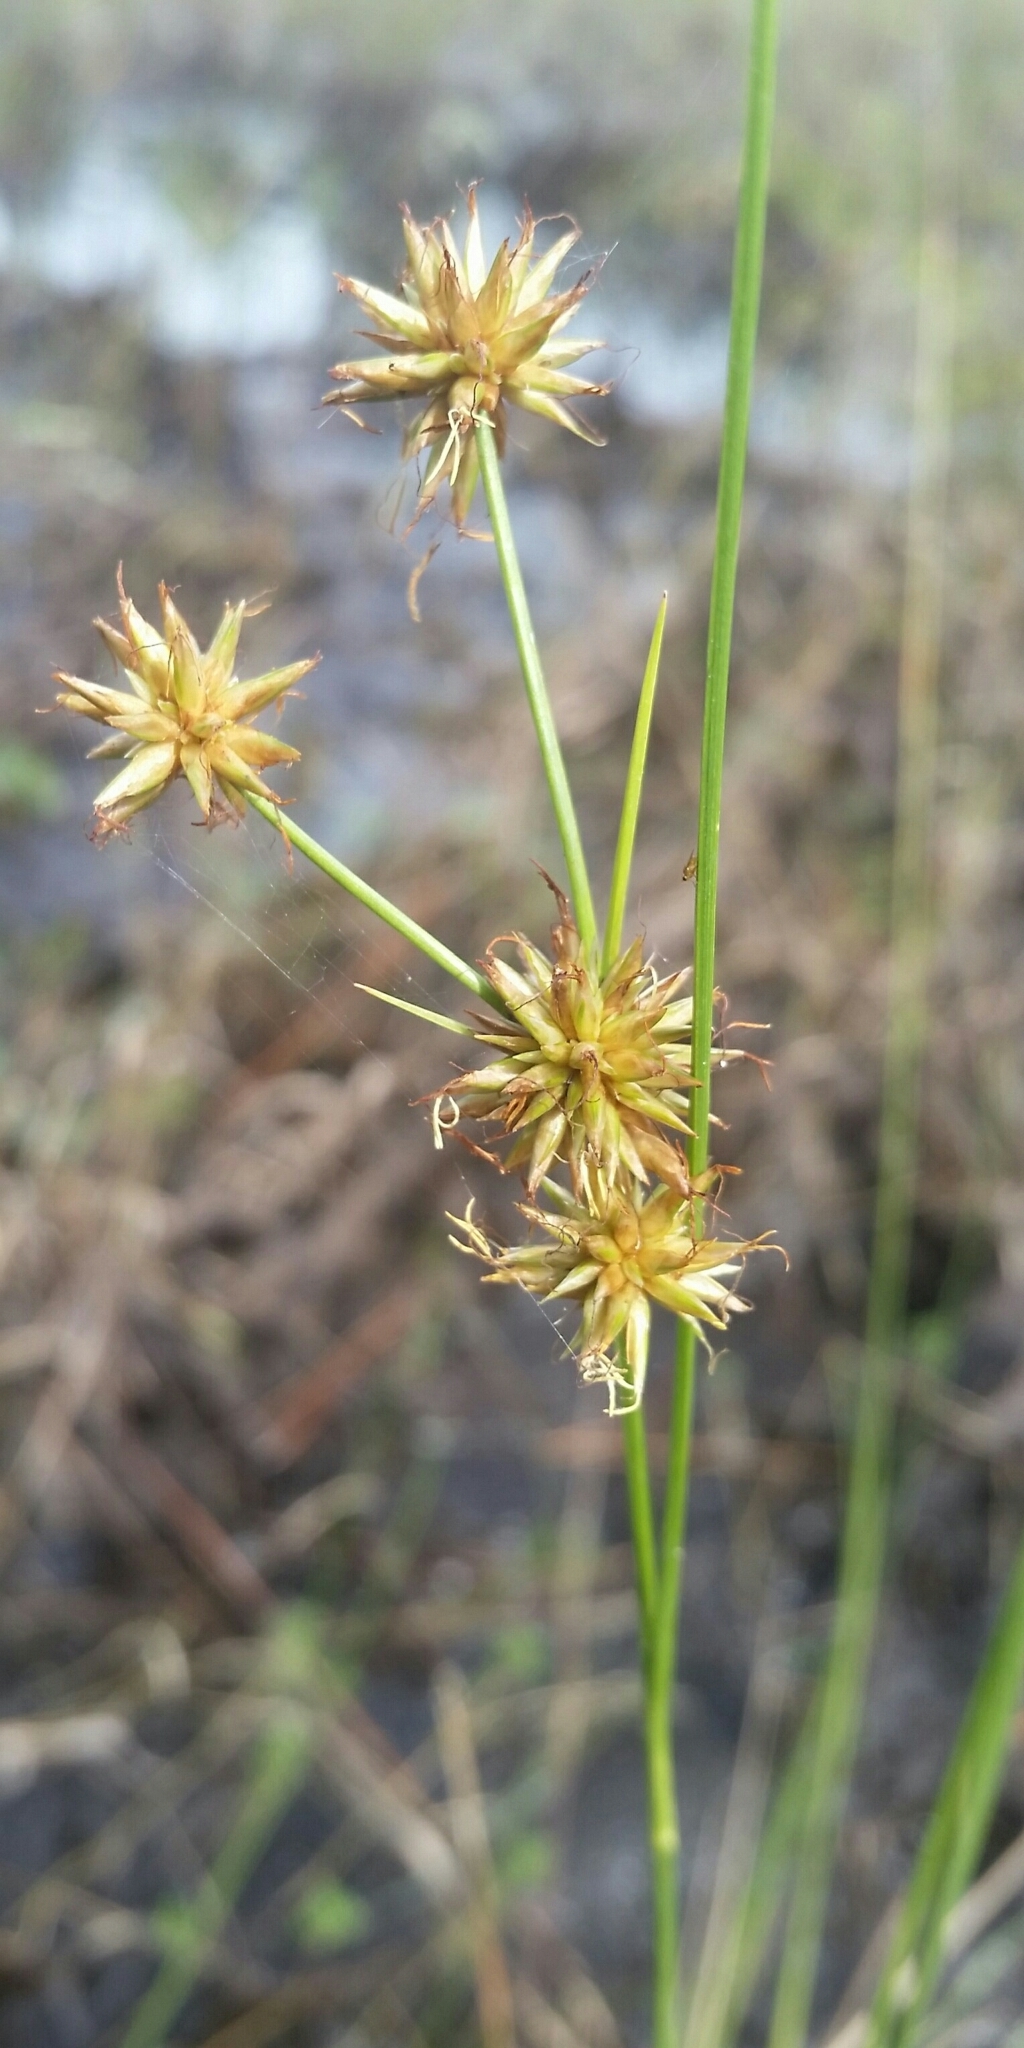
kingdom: Plantae
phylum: Tracheophyta
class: Liliopsida
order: Poales
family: Cyperaceae
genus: Rhynchospora
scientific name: Rhynchospora tracyi
